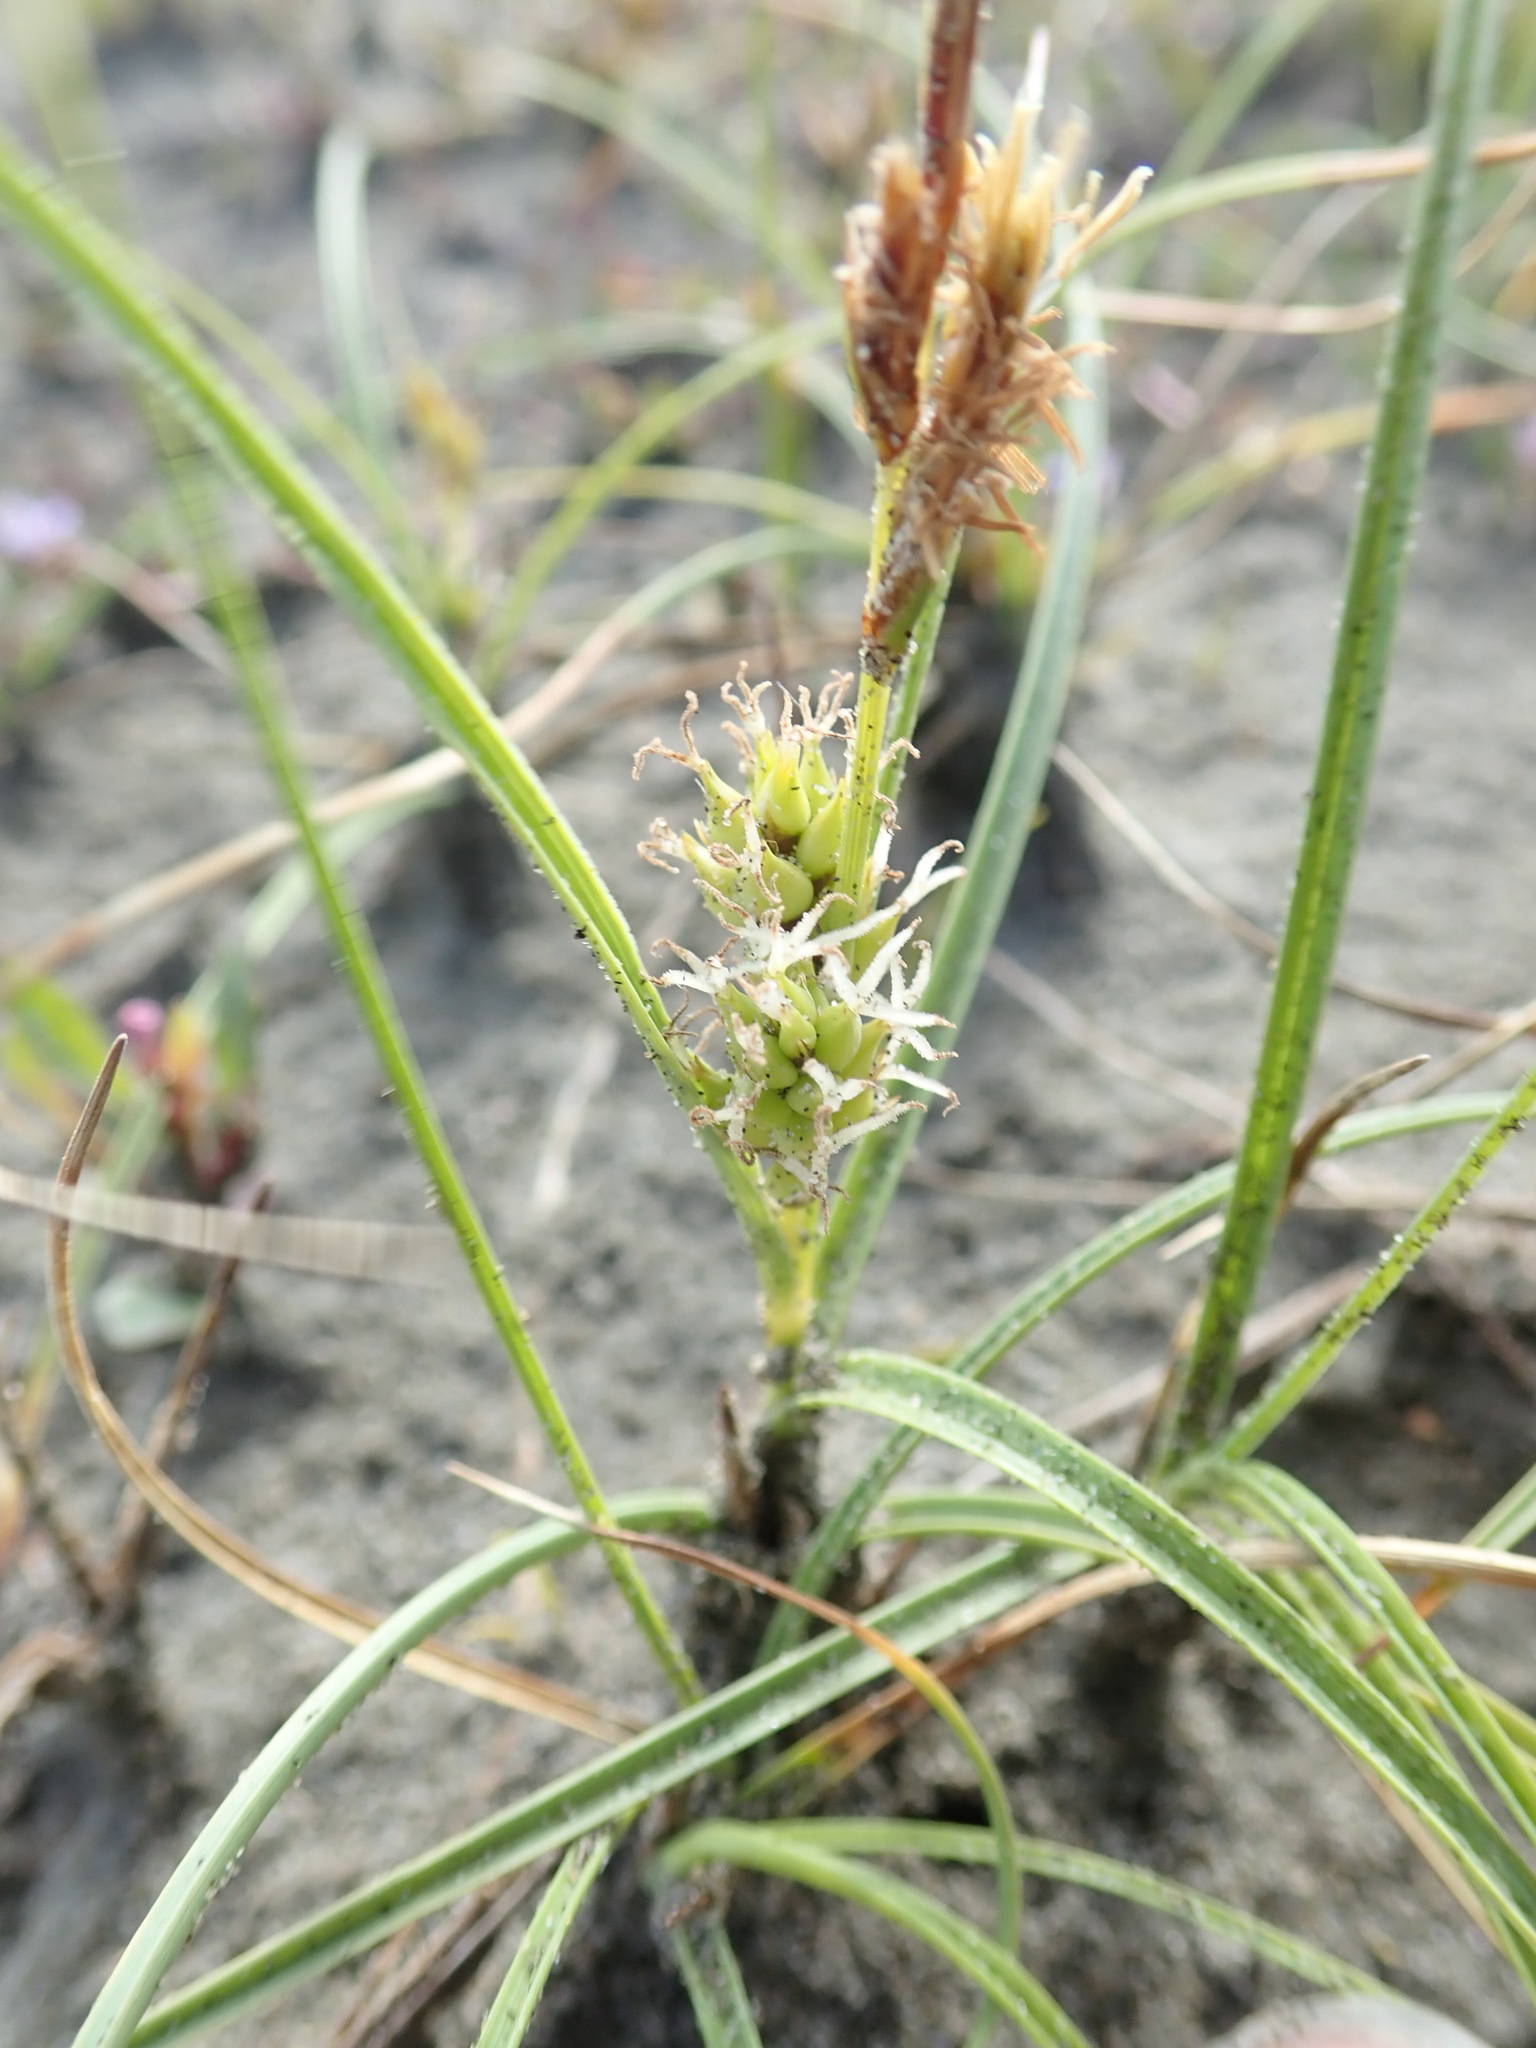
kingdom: Plantae
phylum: Tracheophyta
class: Liliopsida
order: Poales
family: Cyperaceae
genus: Carex
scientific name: Carex pumila
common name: Dwarf sedge
